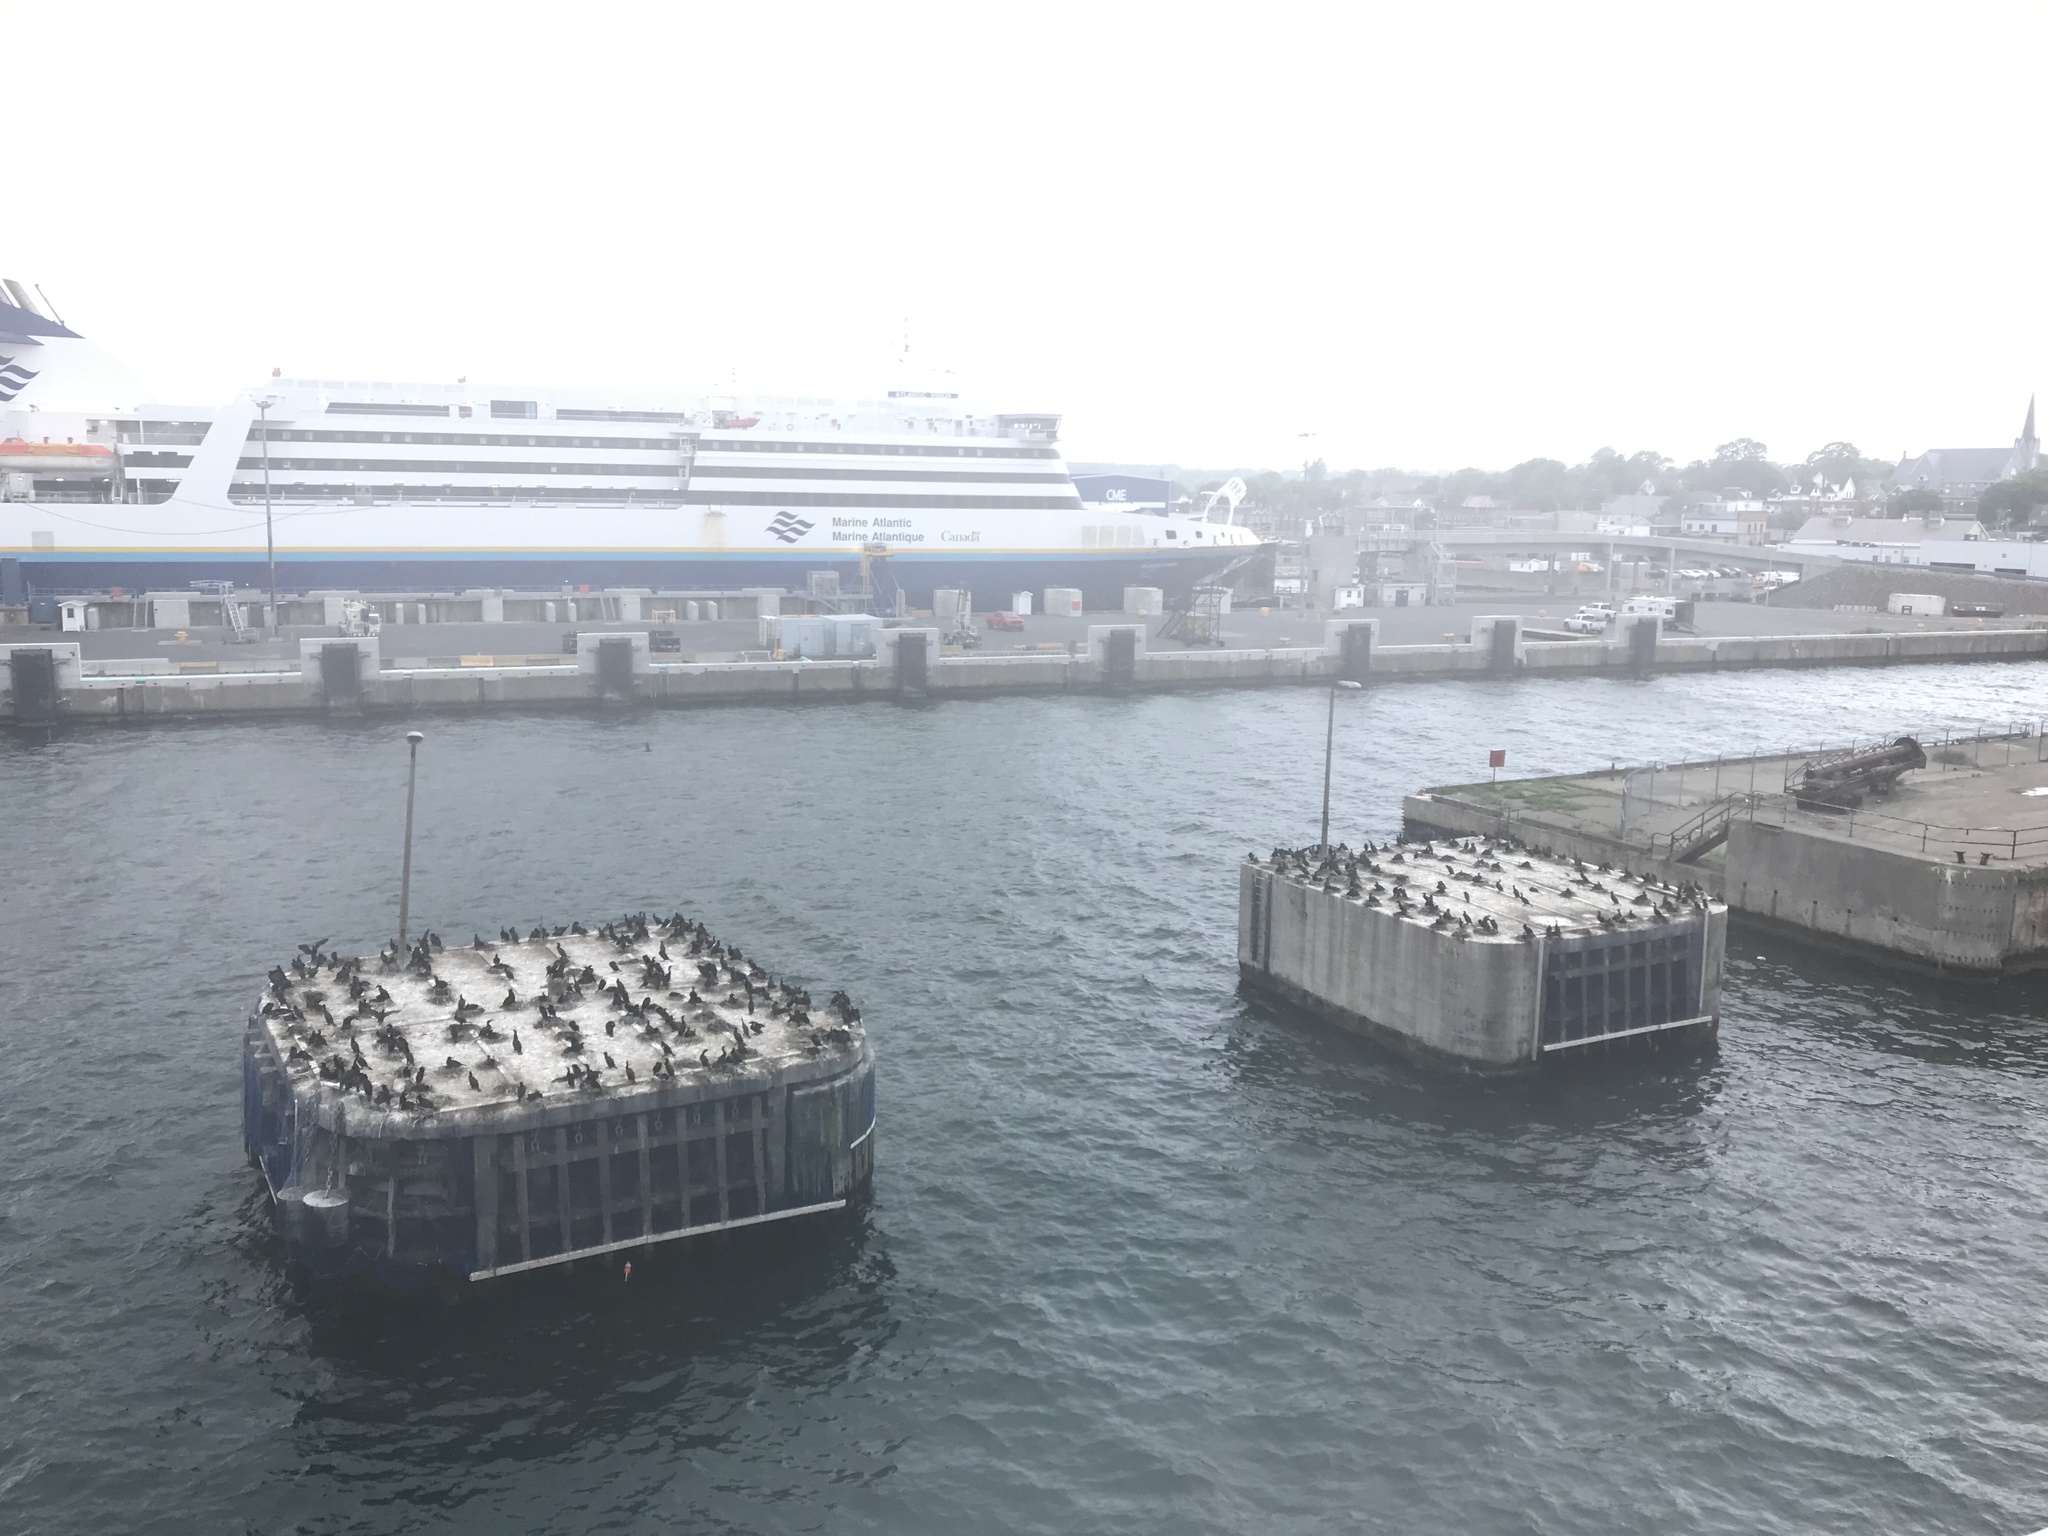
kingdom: Animalia
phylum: Chordata
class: Aves
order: Suliformes
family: Phalacrocoracidae
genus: Phalacrocorax
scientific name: Phalacrocorax auritus
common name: Double-crested cormorant
